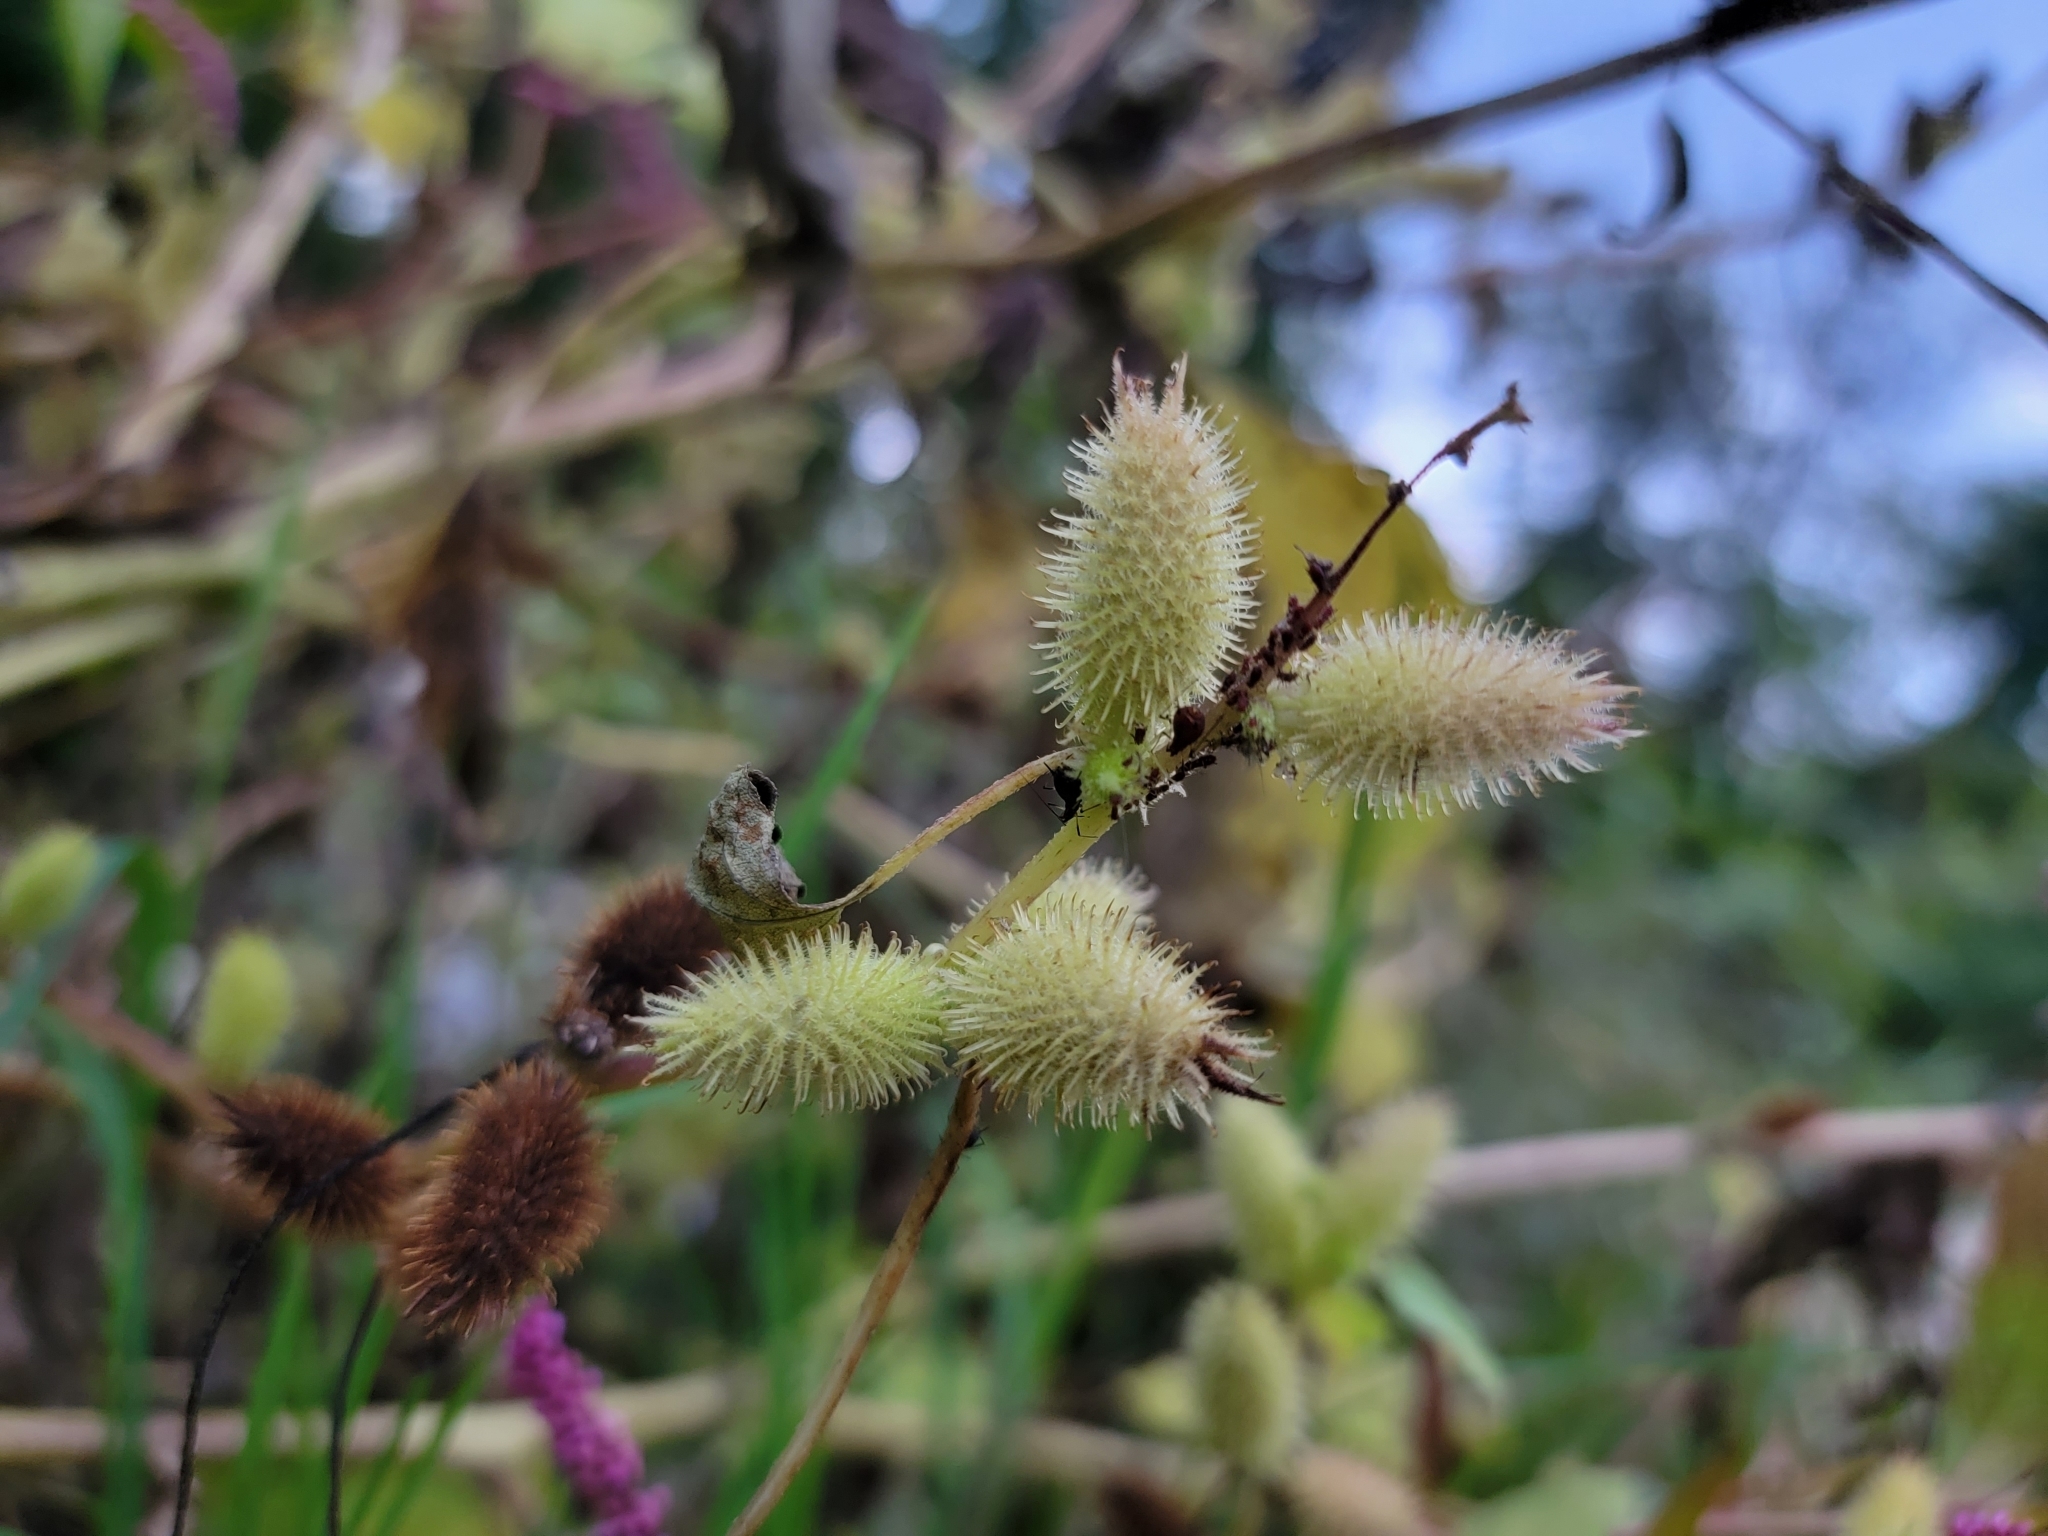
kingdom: Plantae
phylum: Tracheophyta
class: Magnoliopsida
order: Asterales
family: Asteraceae
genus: Xanthium
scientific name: Xanthium strumarium
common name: Rough cocklebur
